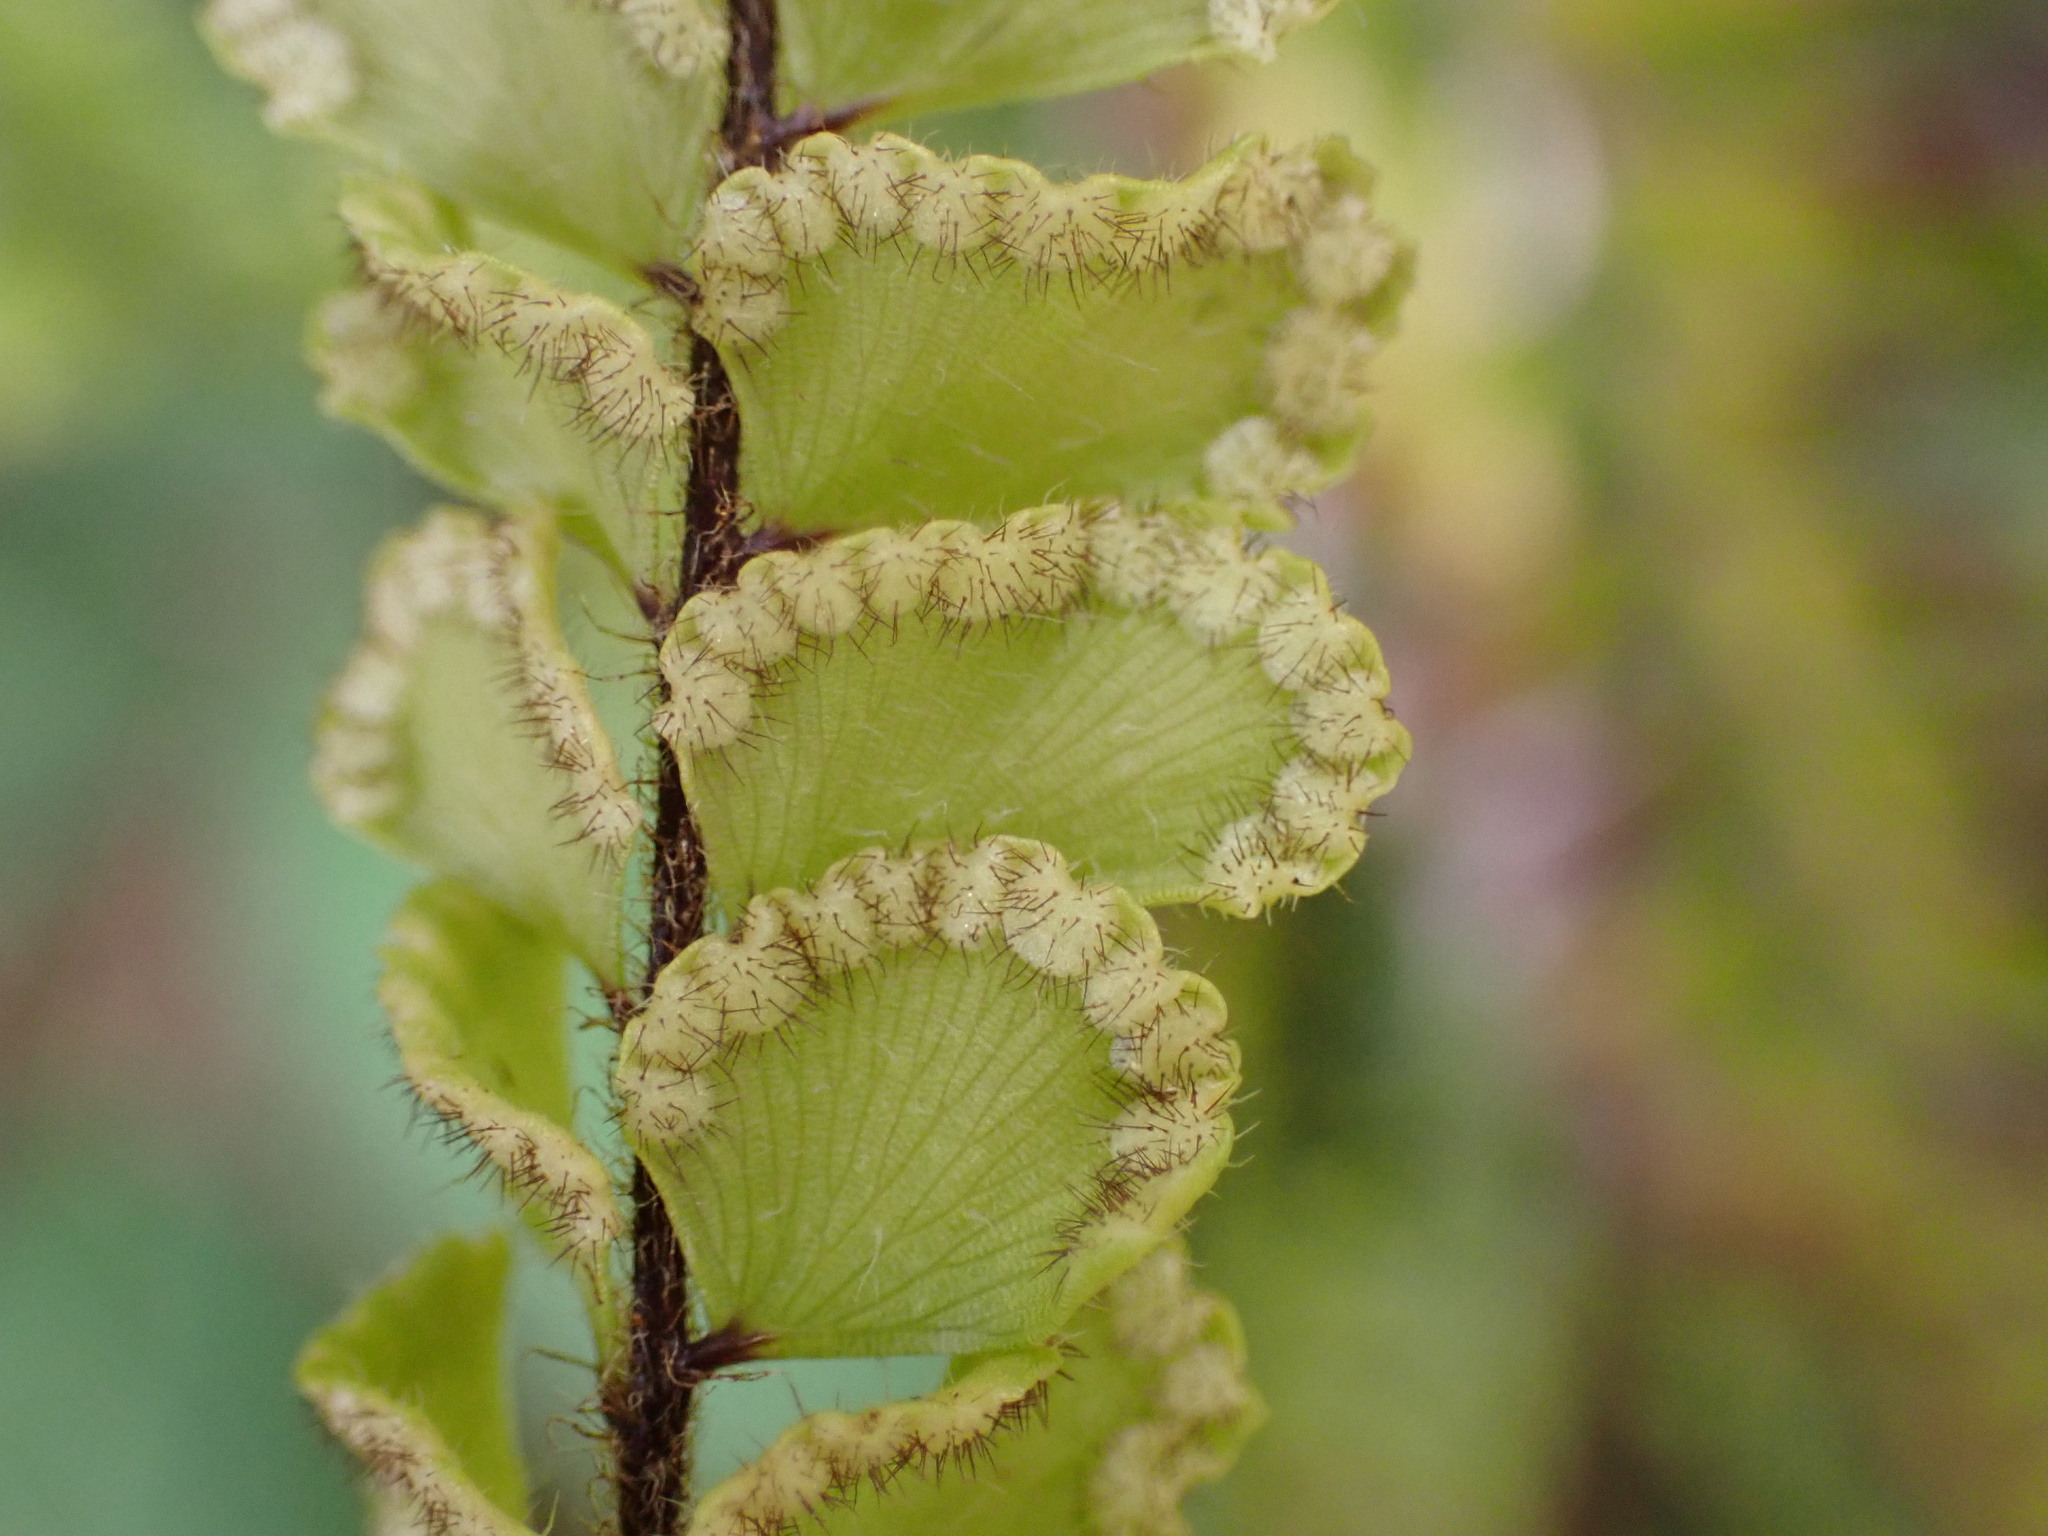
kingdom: Plantae
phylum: Tracheophyta
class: Polypodiopsida
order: Polypodiales
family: Pteridaceae
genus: Adiantum
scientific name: Adiantum hispidulum
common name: Rough maidenhair
